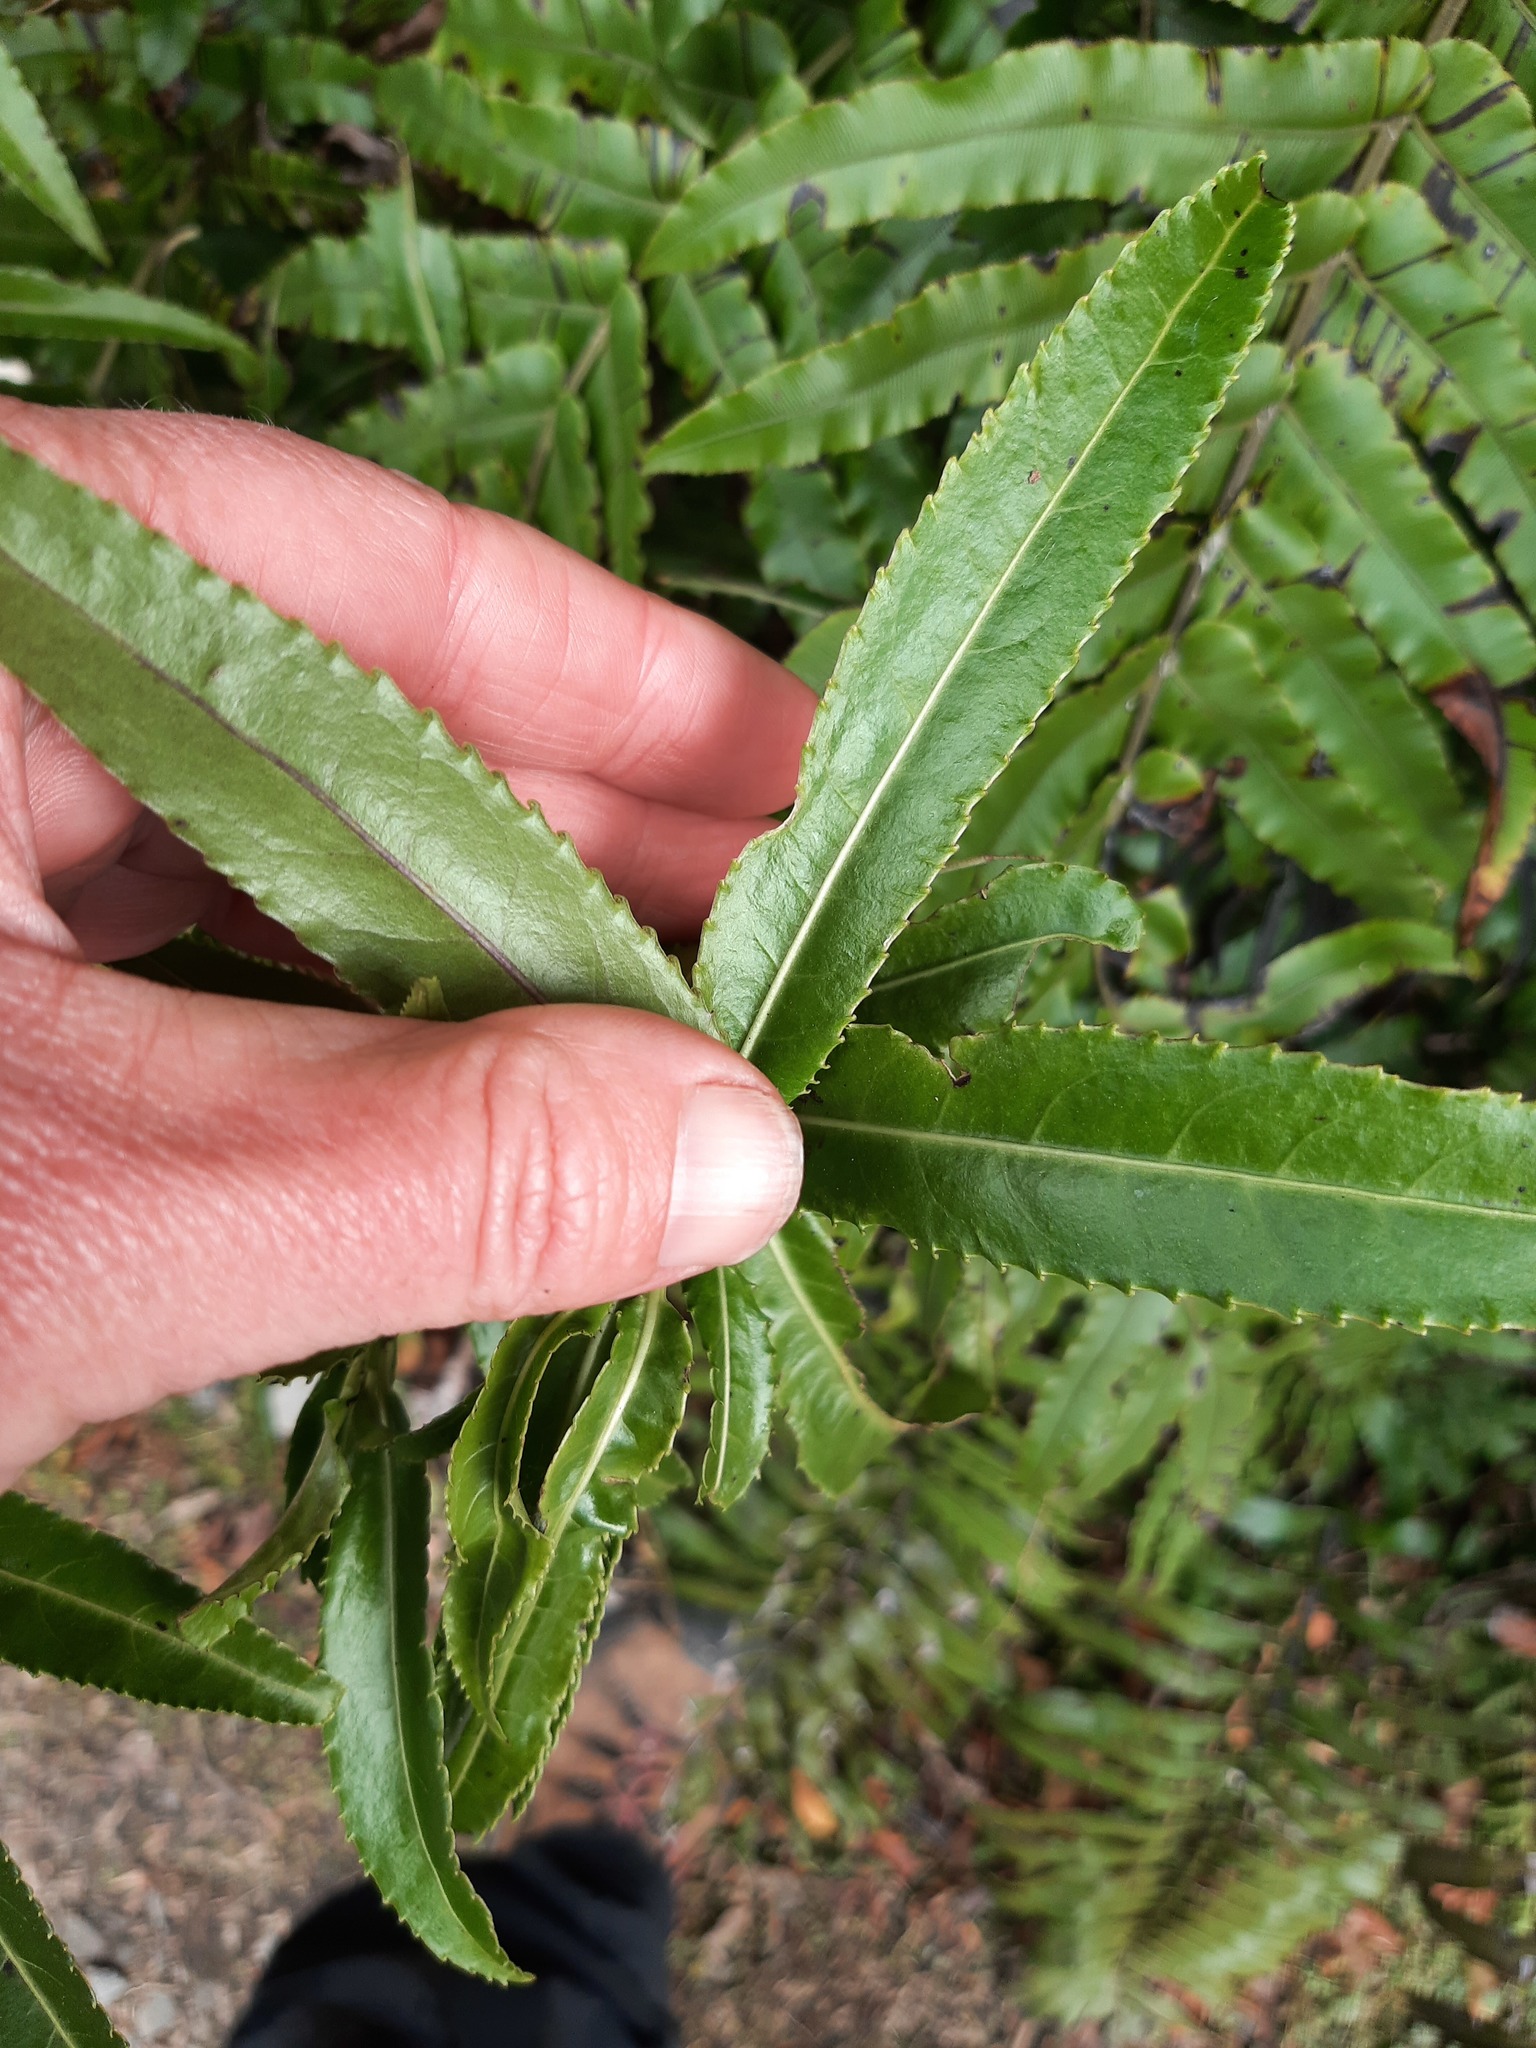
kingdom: Plantae
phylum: Tracheophyta
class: Magnoliopsida
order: Malpighiales
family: Violaceae
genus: Melicytus
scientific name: Melicytus lanceolatus
